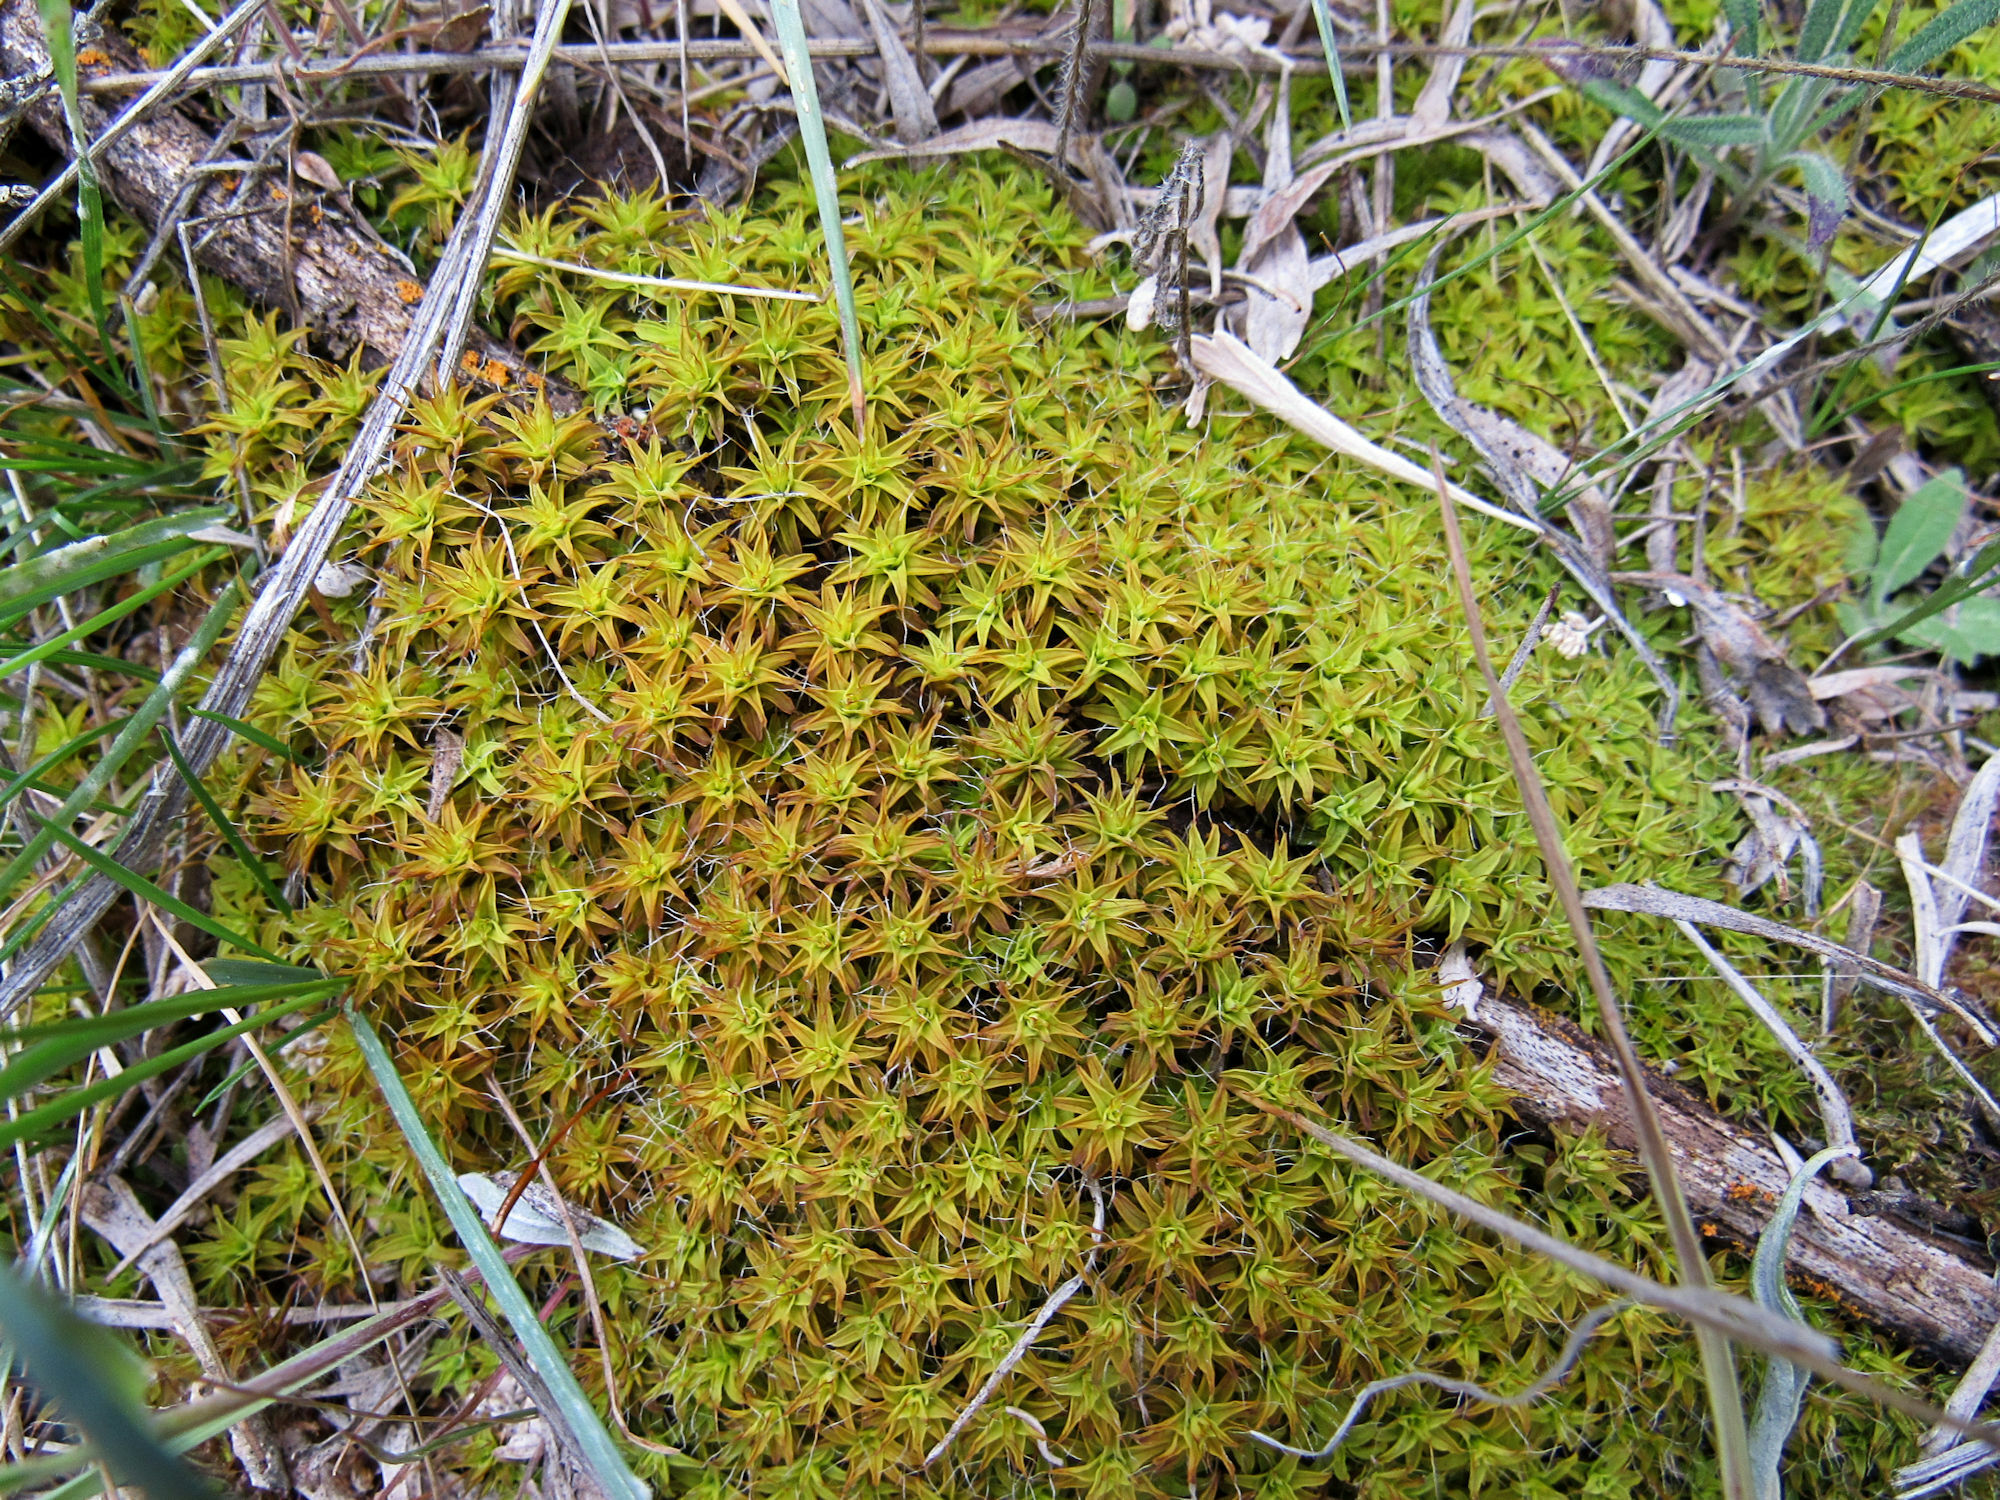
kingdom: Plantae
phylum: Bryophyta
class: Bryopsida
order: Pottiales
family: Pottiaceae
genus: Syntrichia
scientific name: Syntrichia ruralis
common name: Sidewalk screw moss
